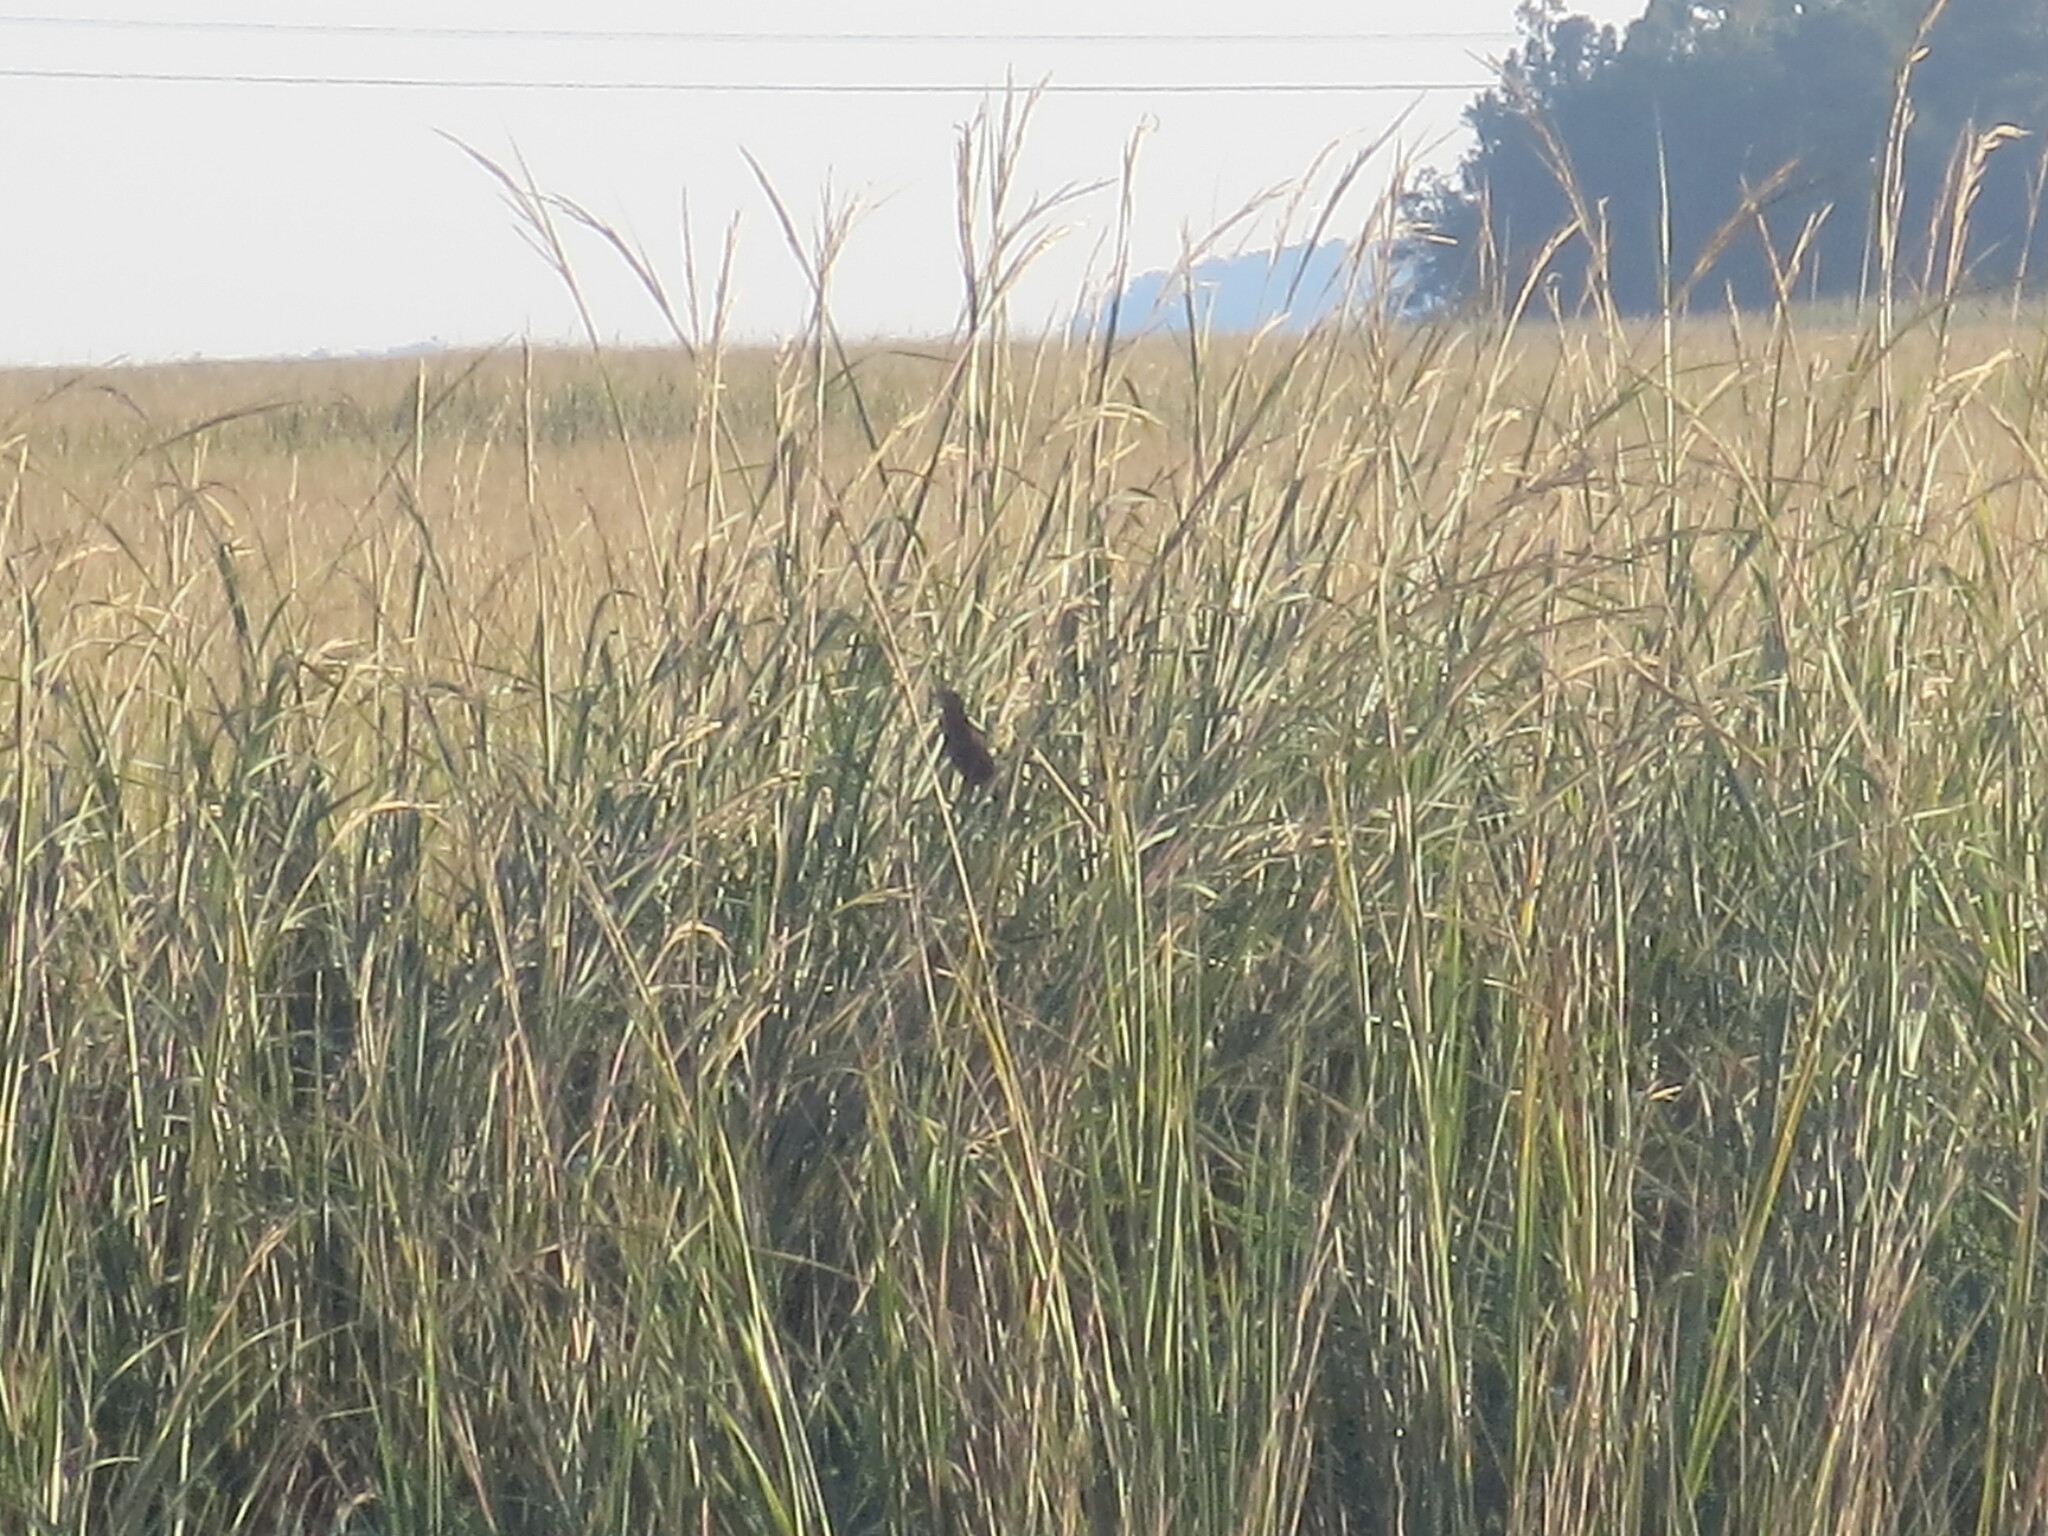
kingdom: Animalia
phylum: Chordata
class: Aves
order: Passeriformes
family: Icteridae
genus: Agelaius
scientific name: Agelaius phoeniceus
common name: Red-winged blackbird
